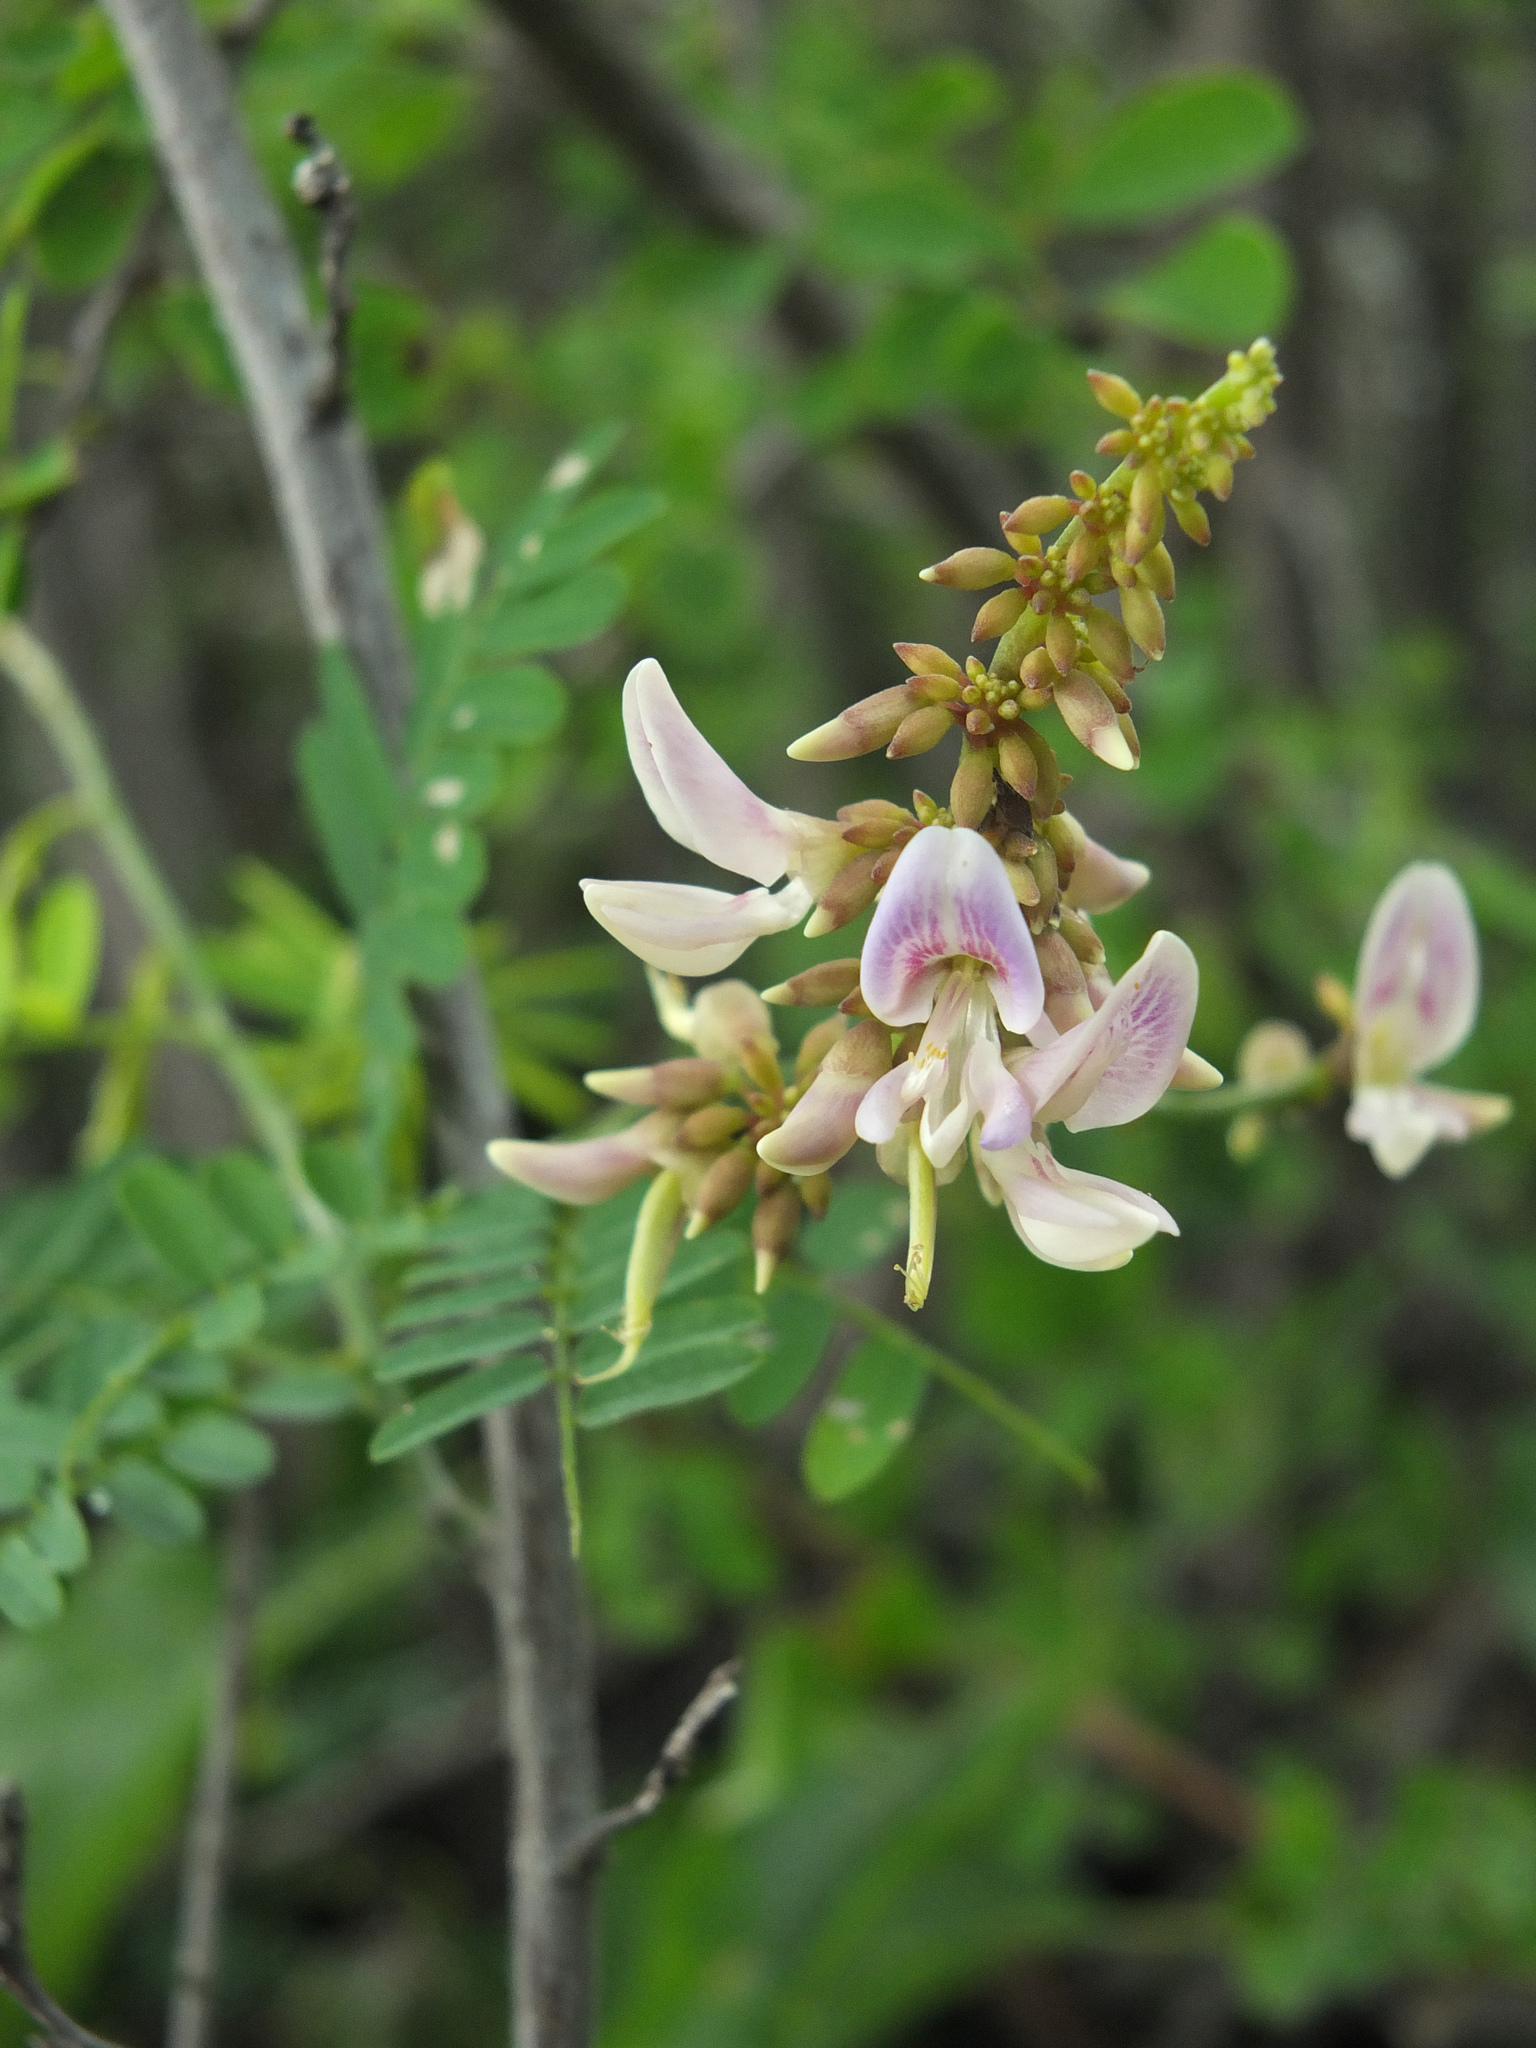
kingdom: Plantae
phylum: Tracheophyta
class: Magnoliopsida
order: Fabales
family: Fabaceae
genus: Abrus
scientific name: Abrus precatorius
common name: Rosarypea
